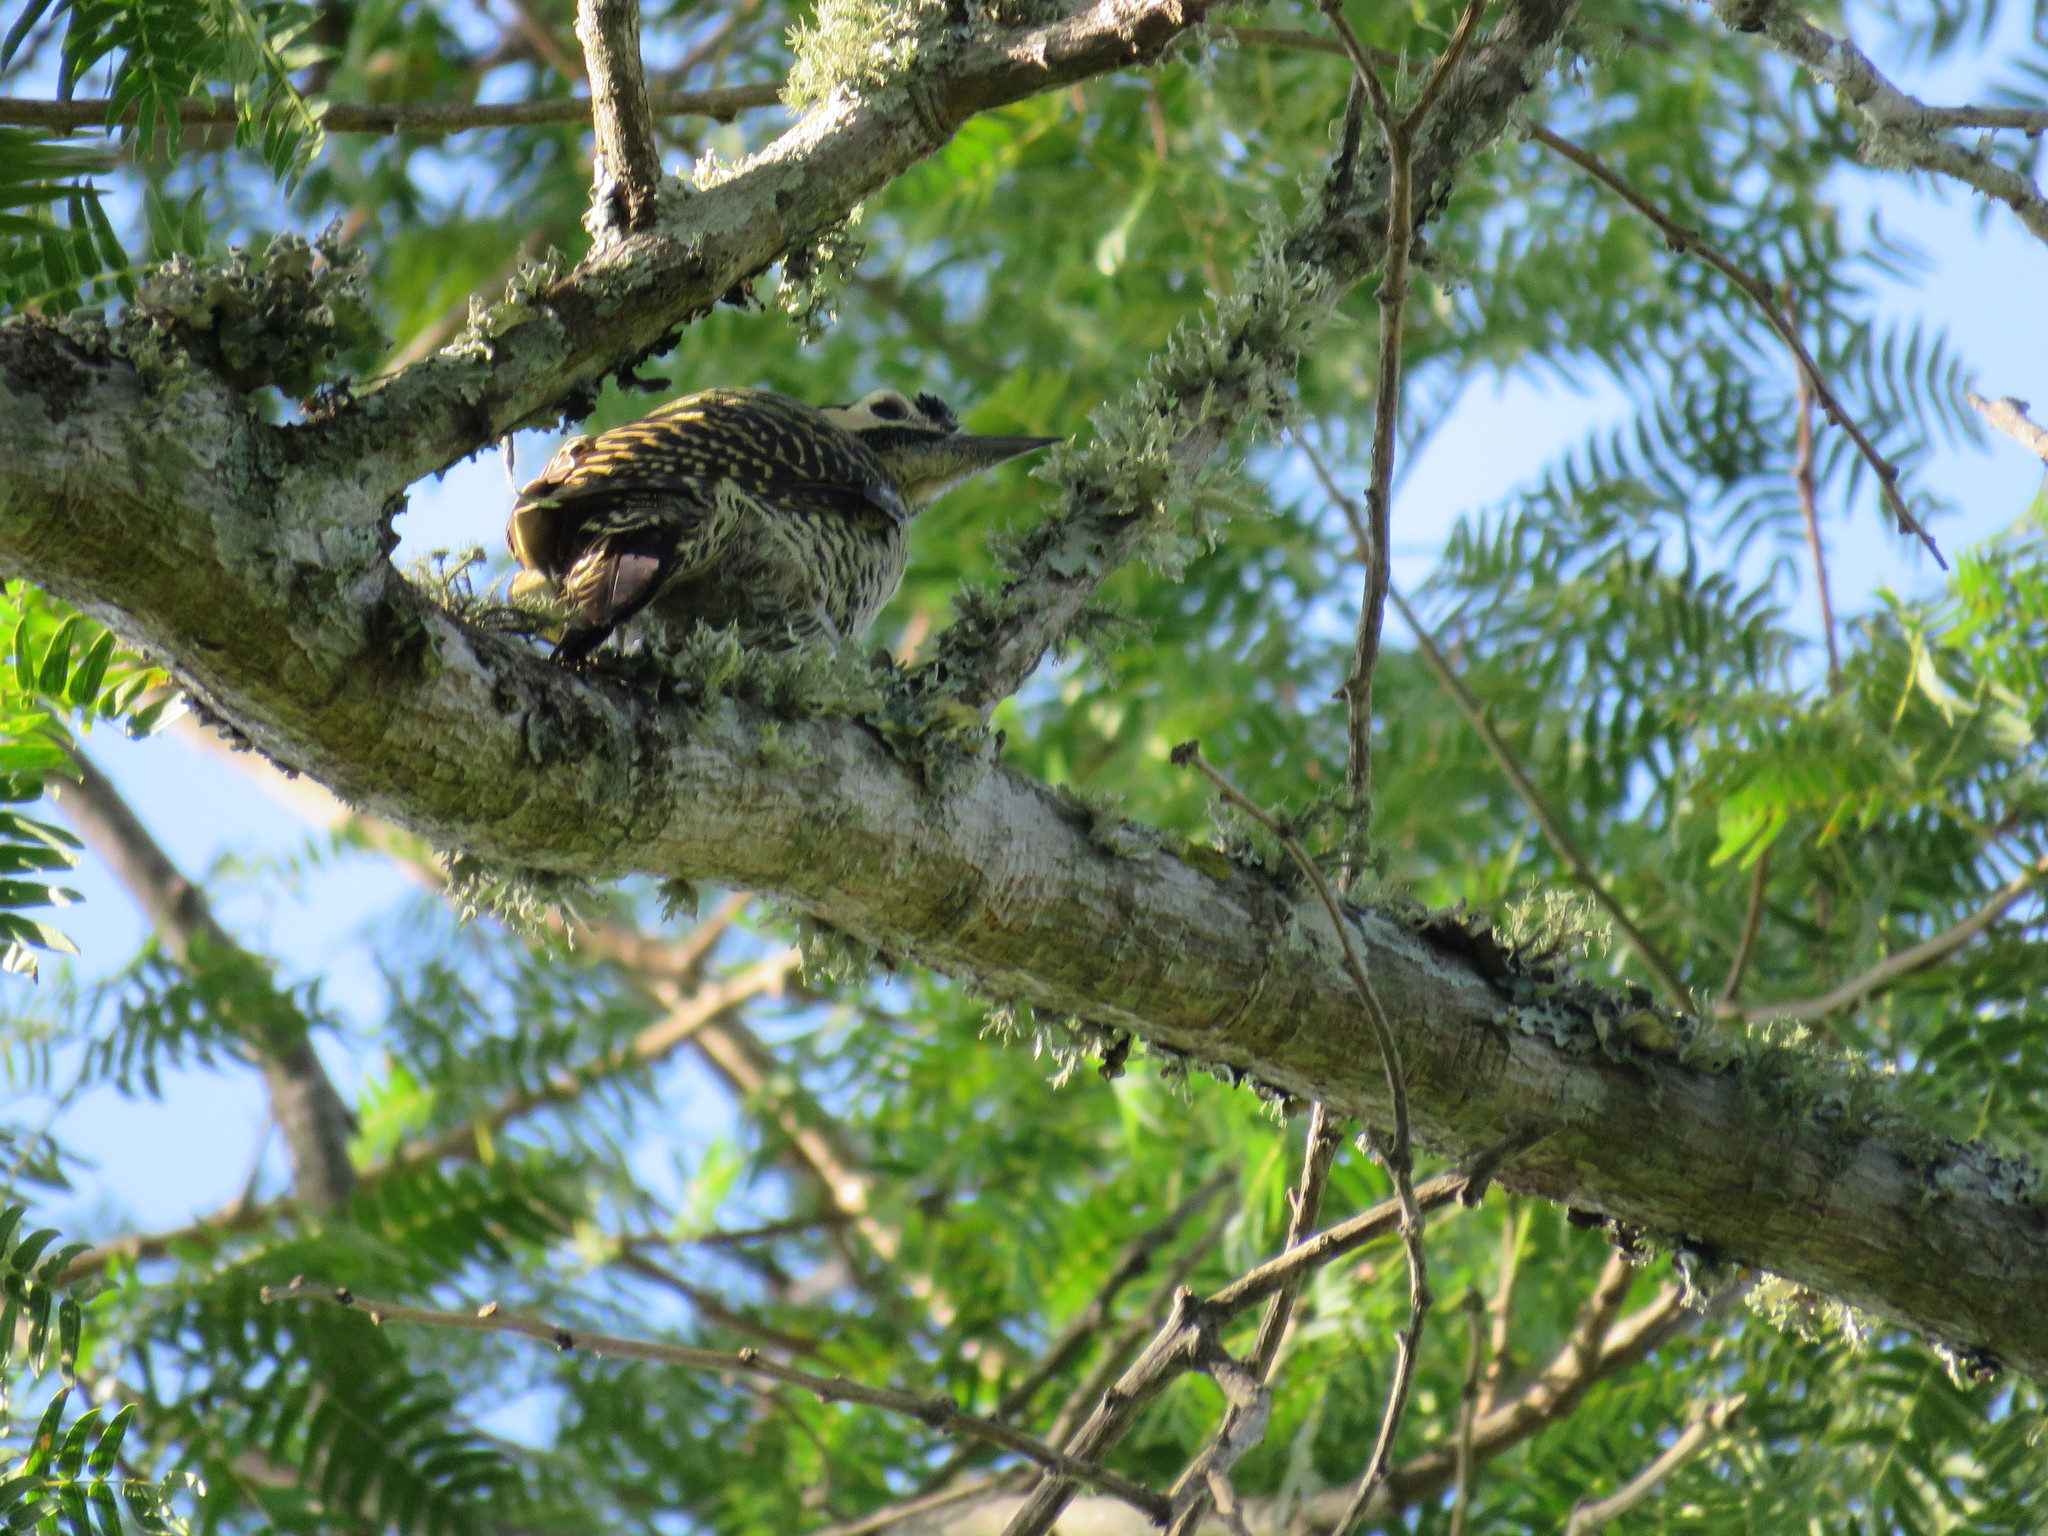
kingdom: Animalia
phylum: Chordata
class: Aves
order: Piciformes
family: Picidae
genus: Colaptes
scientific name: Colaptes melanochloros
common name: Green-barred woodpecker
